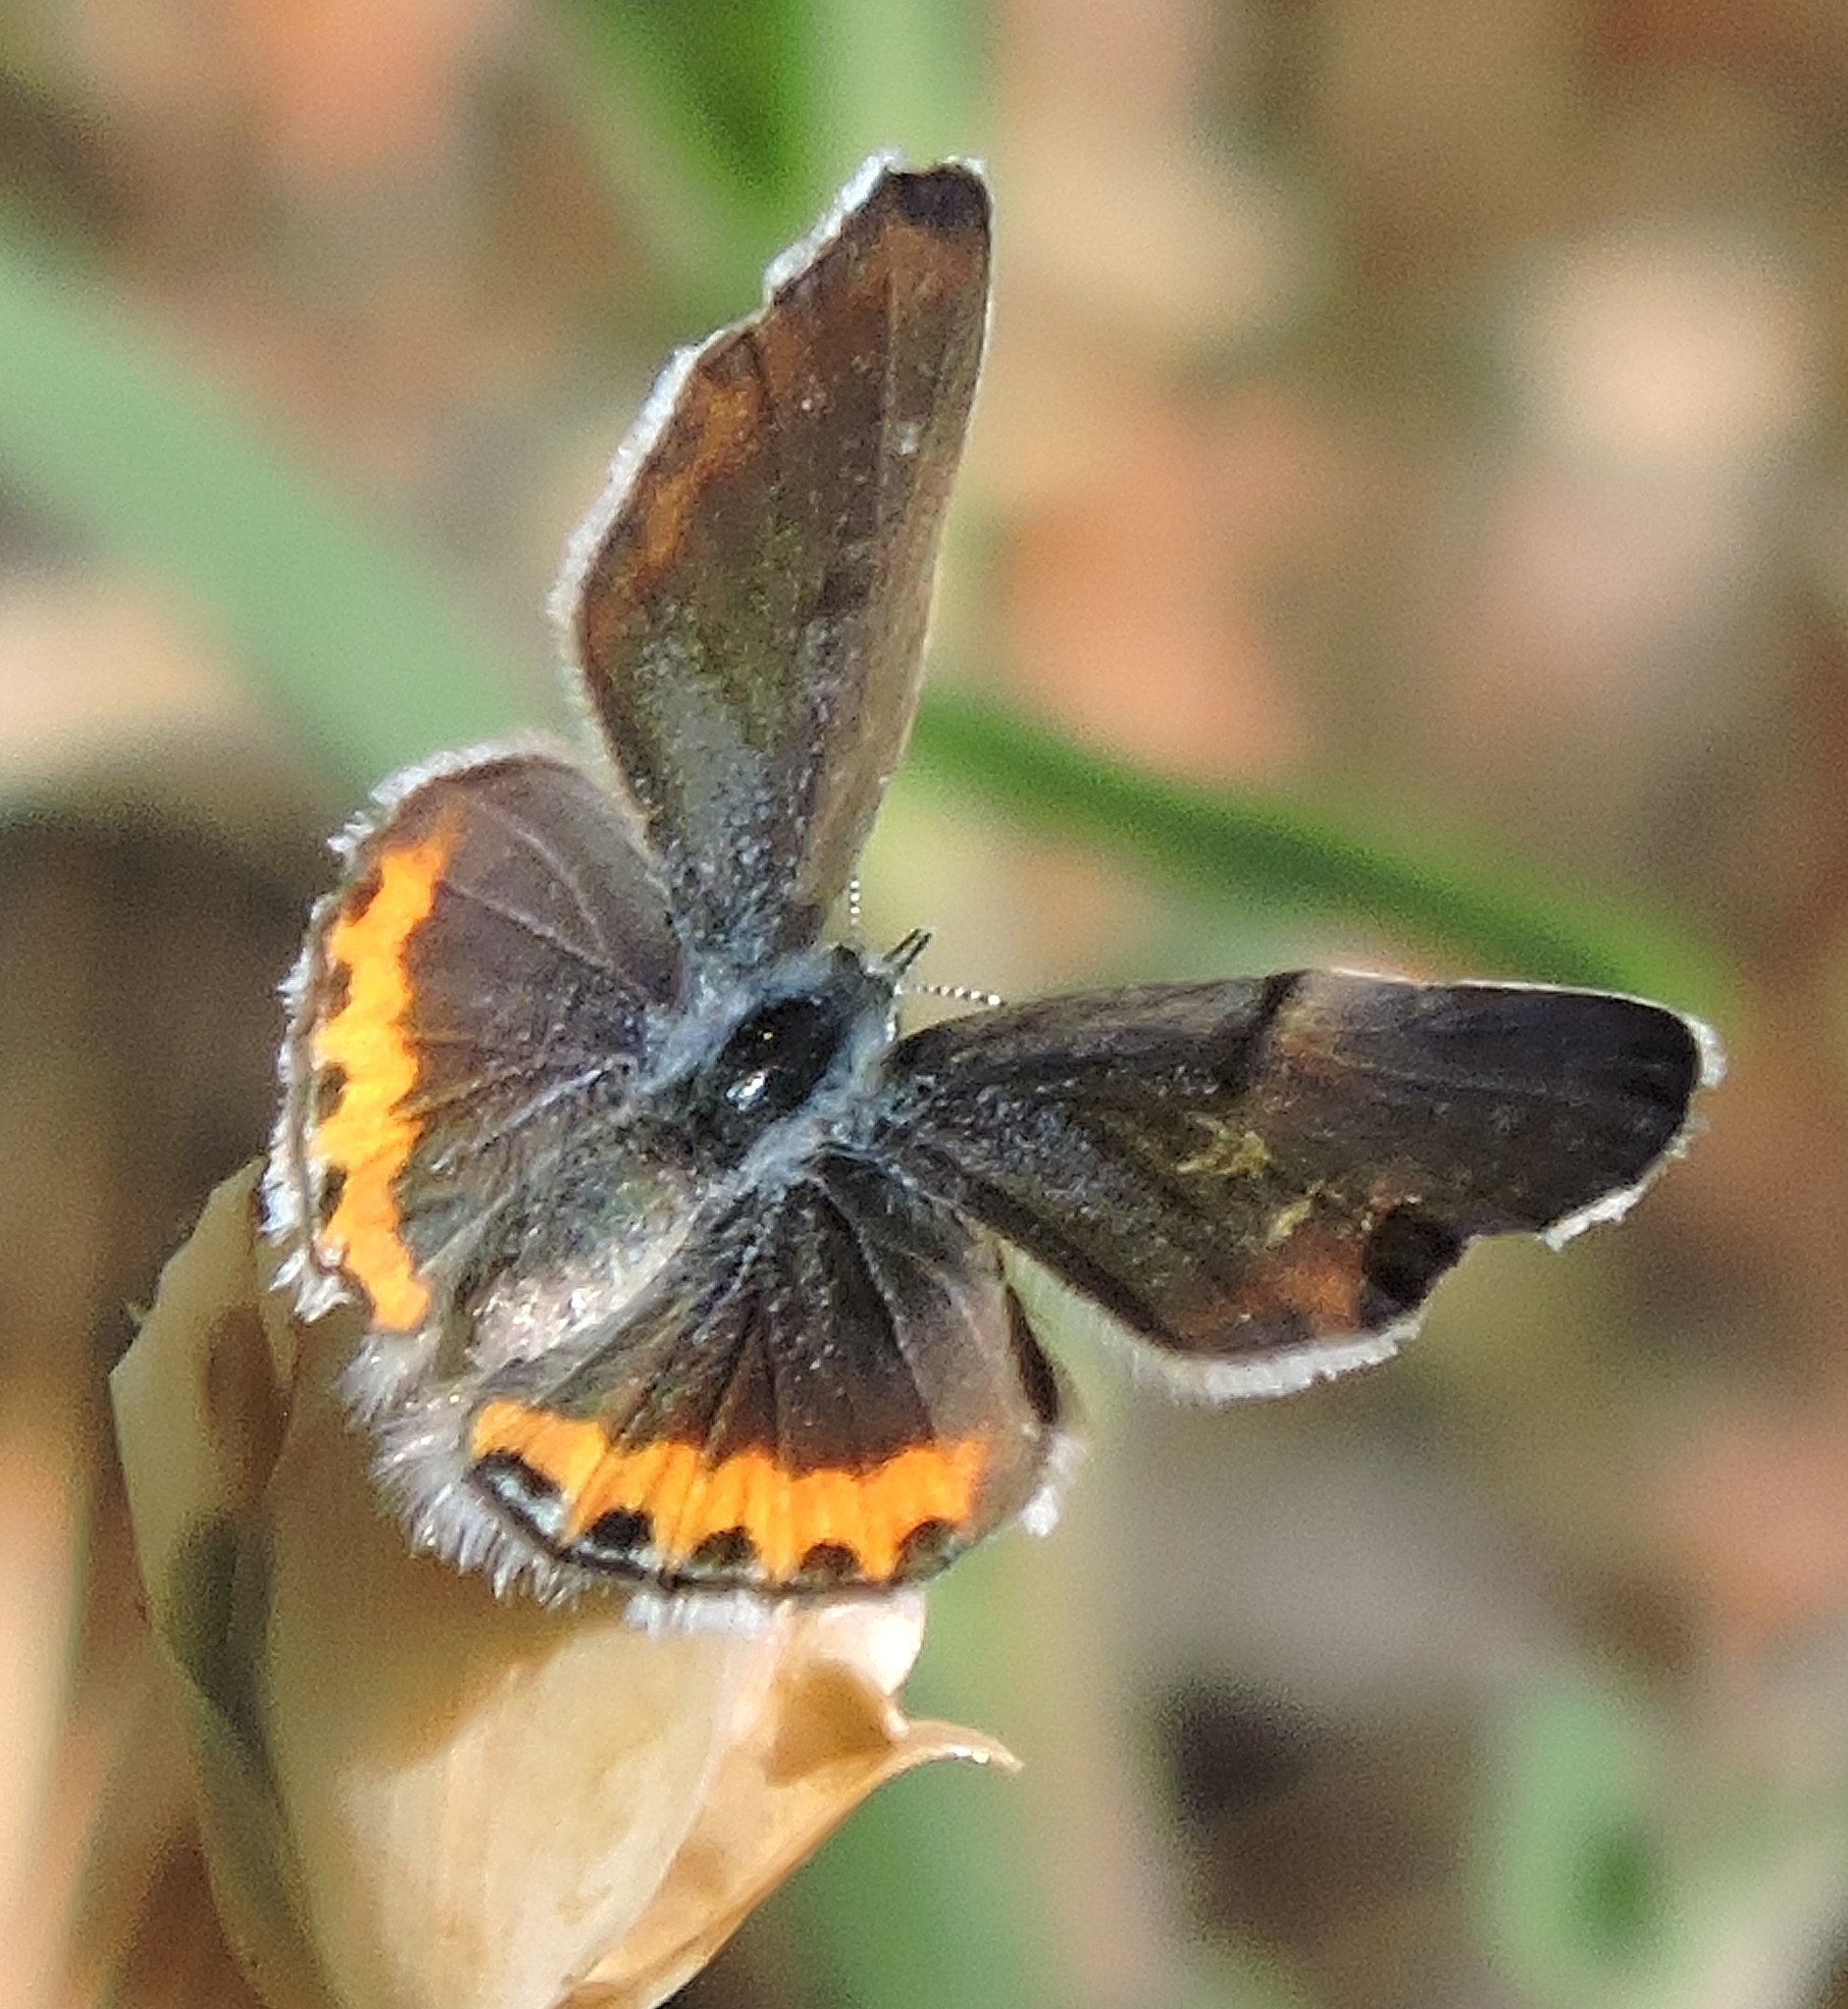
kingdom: Animalia
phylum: Arthropoda
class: Insecta
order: Lepidoptera
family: Lycaenidae
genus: Icaricia
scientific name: Icaricia acmon
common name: Acmon blue
